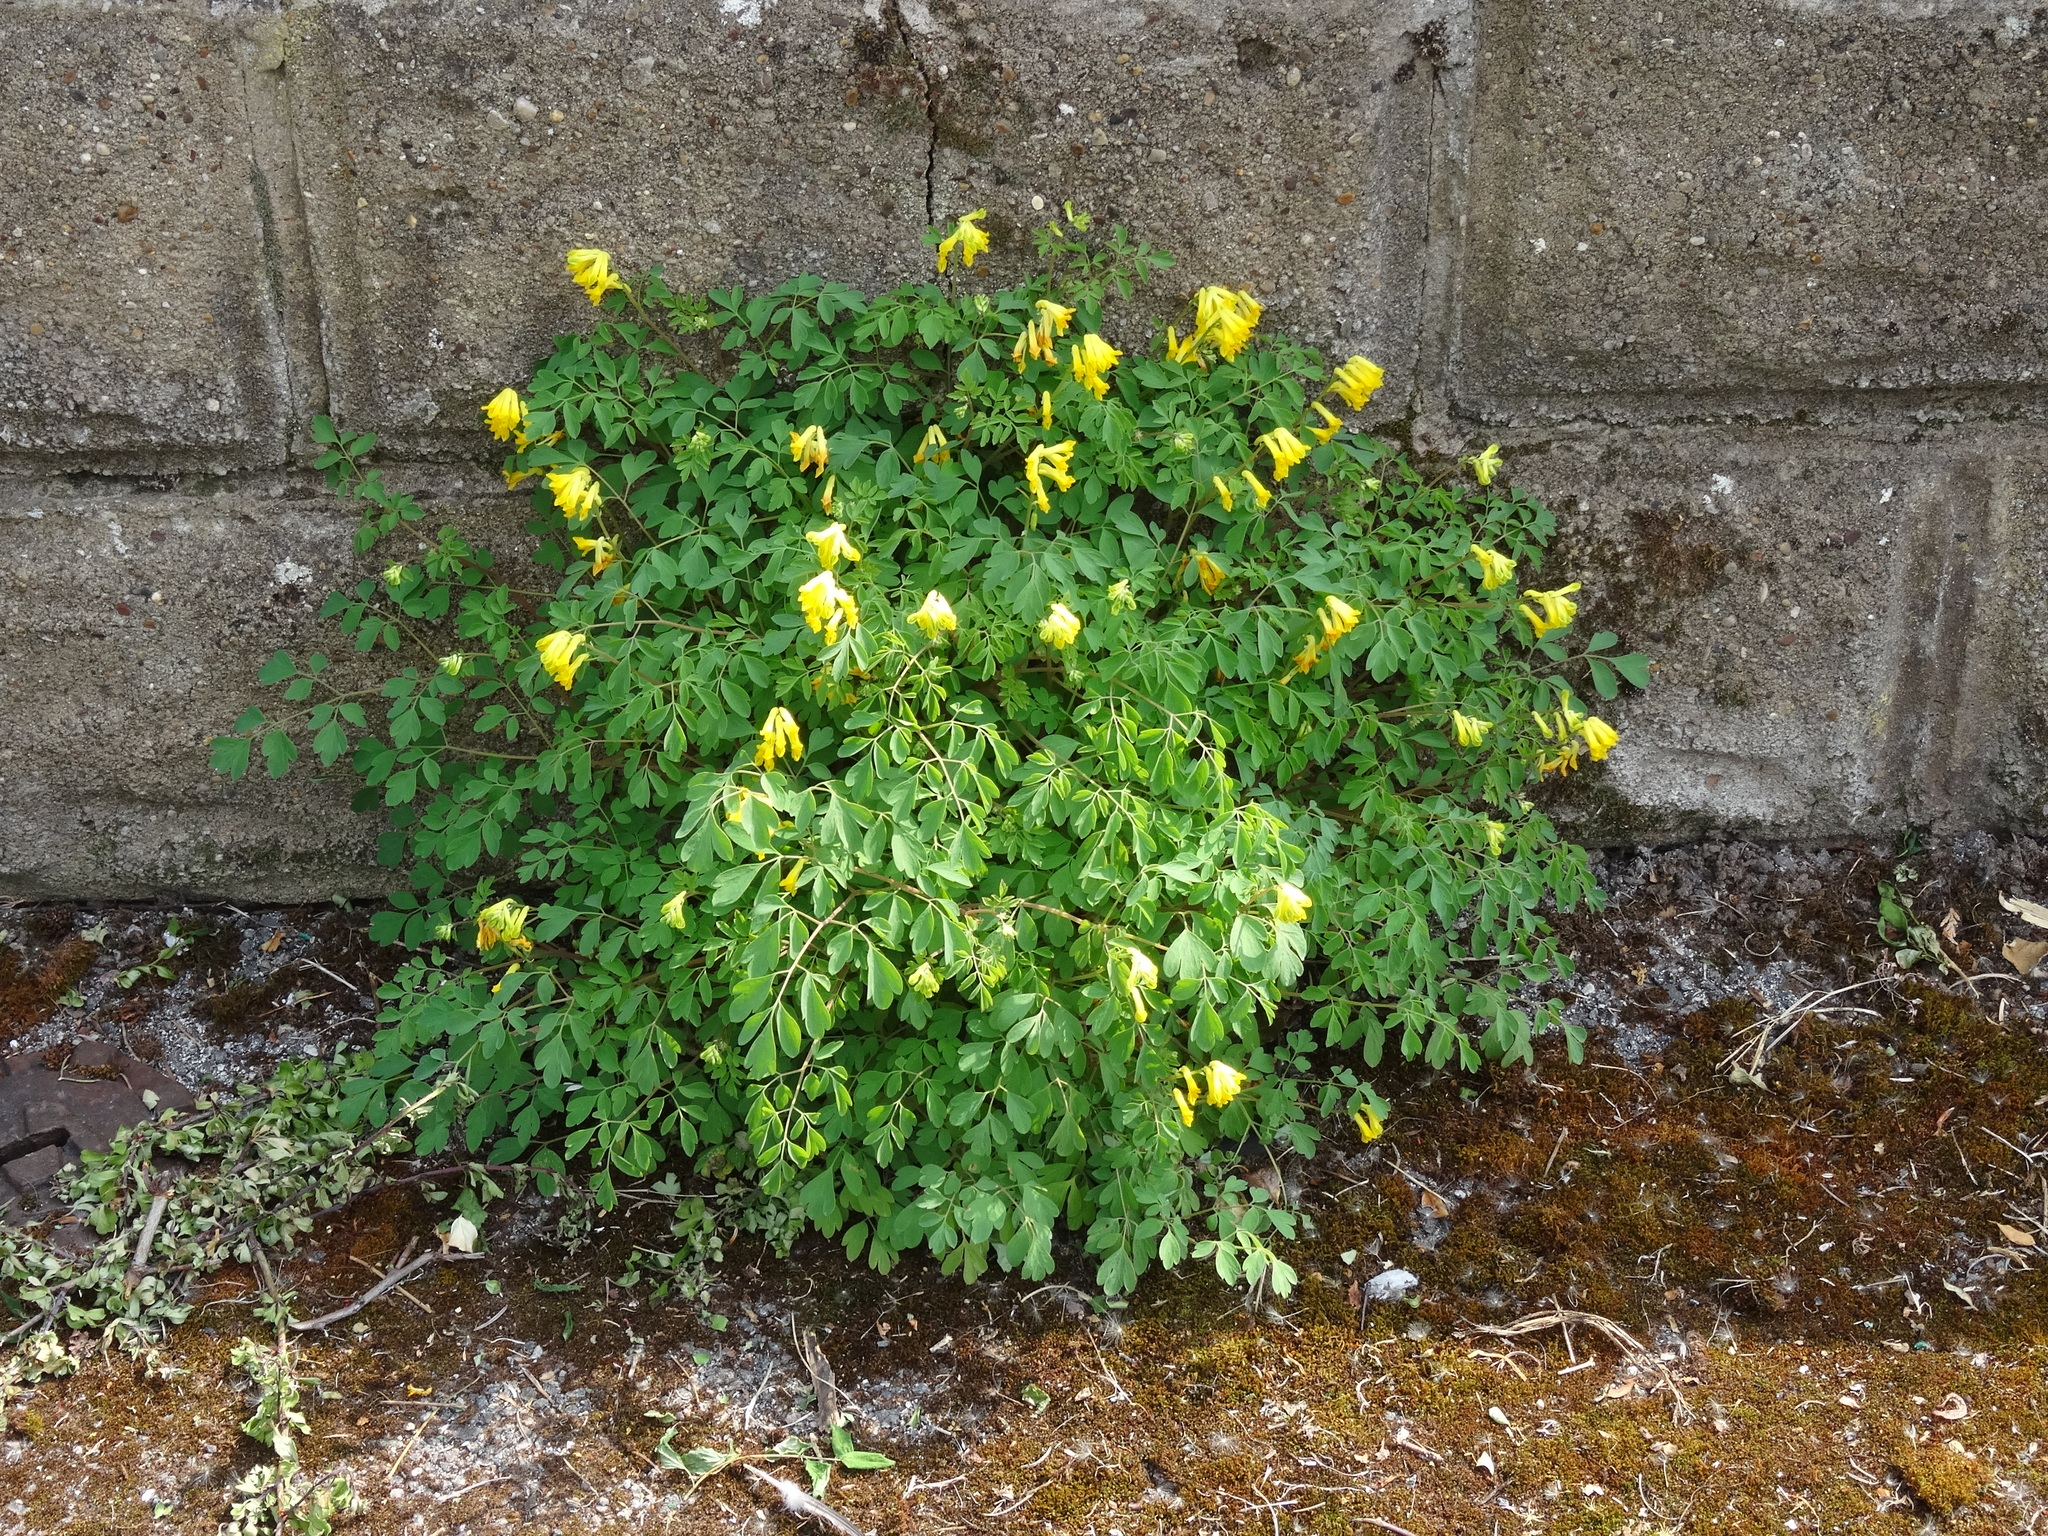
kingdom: Plantae
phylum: Tracheophyta
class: Magnoliopsida
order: Ranunculales
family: Papaveraceae
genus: Pseudofumaria
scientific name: Pseudofumaria lutea
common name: Yellow corydalis
